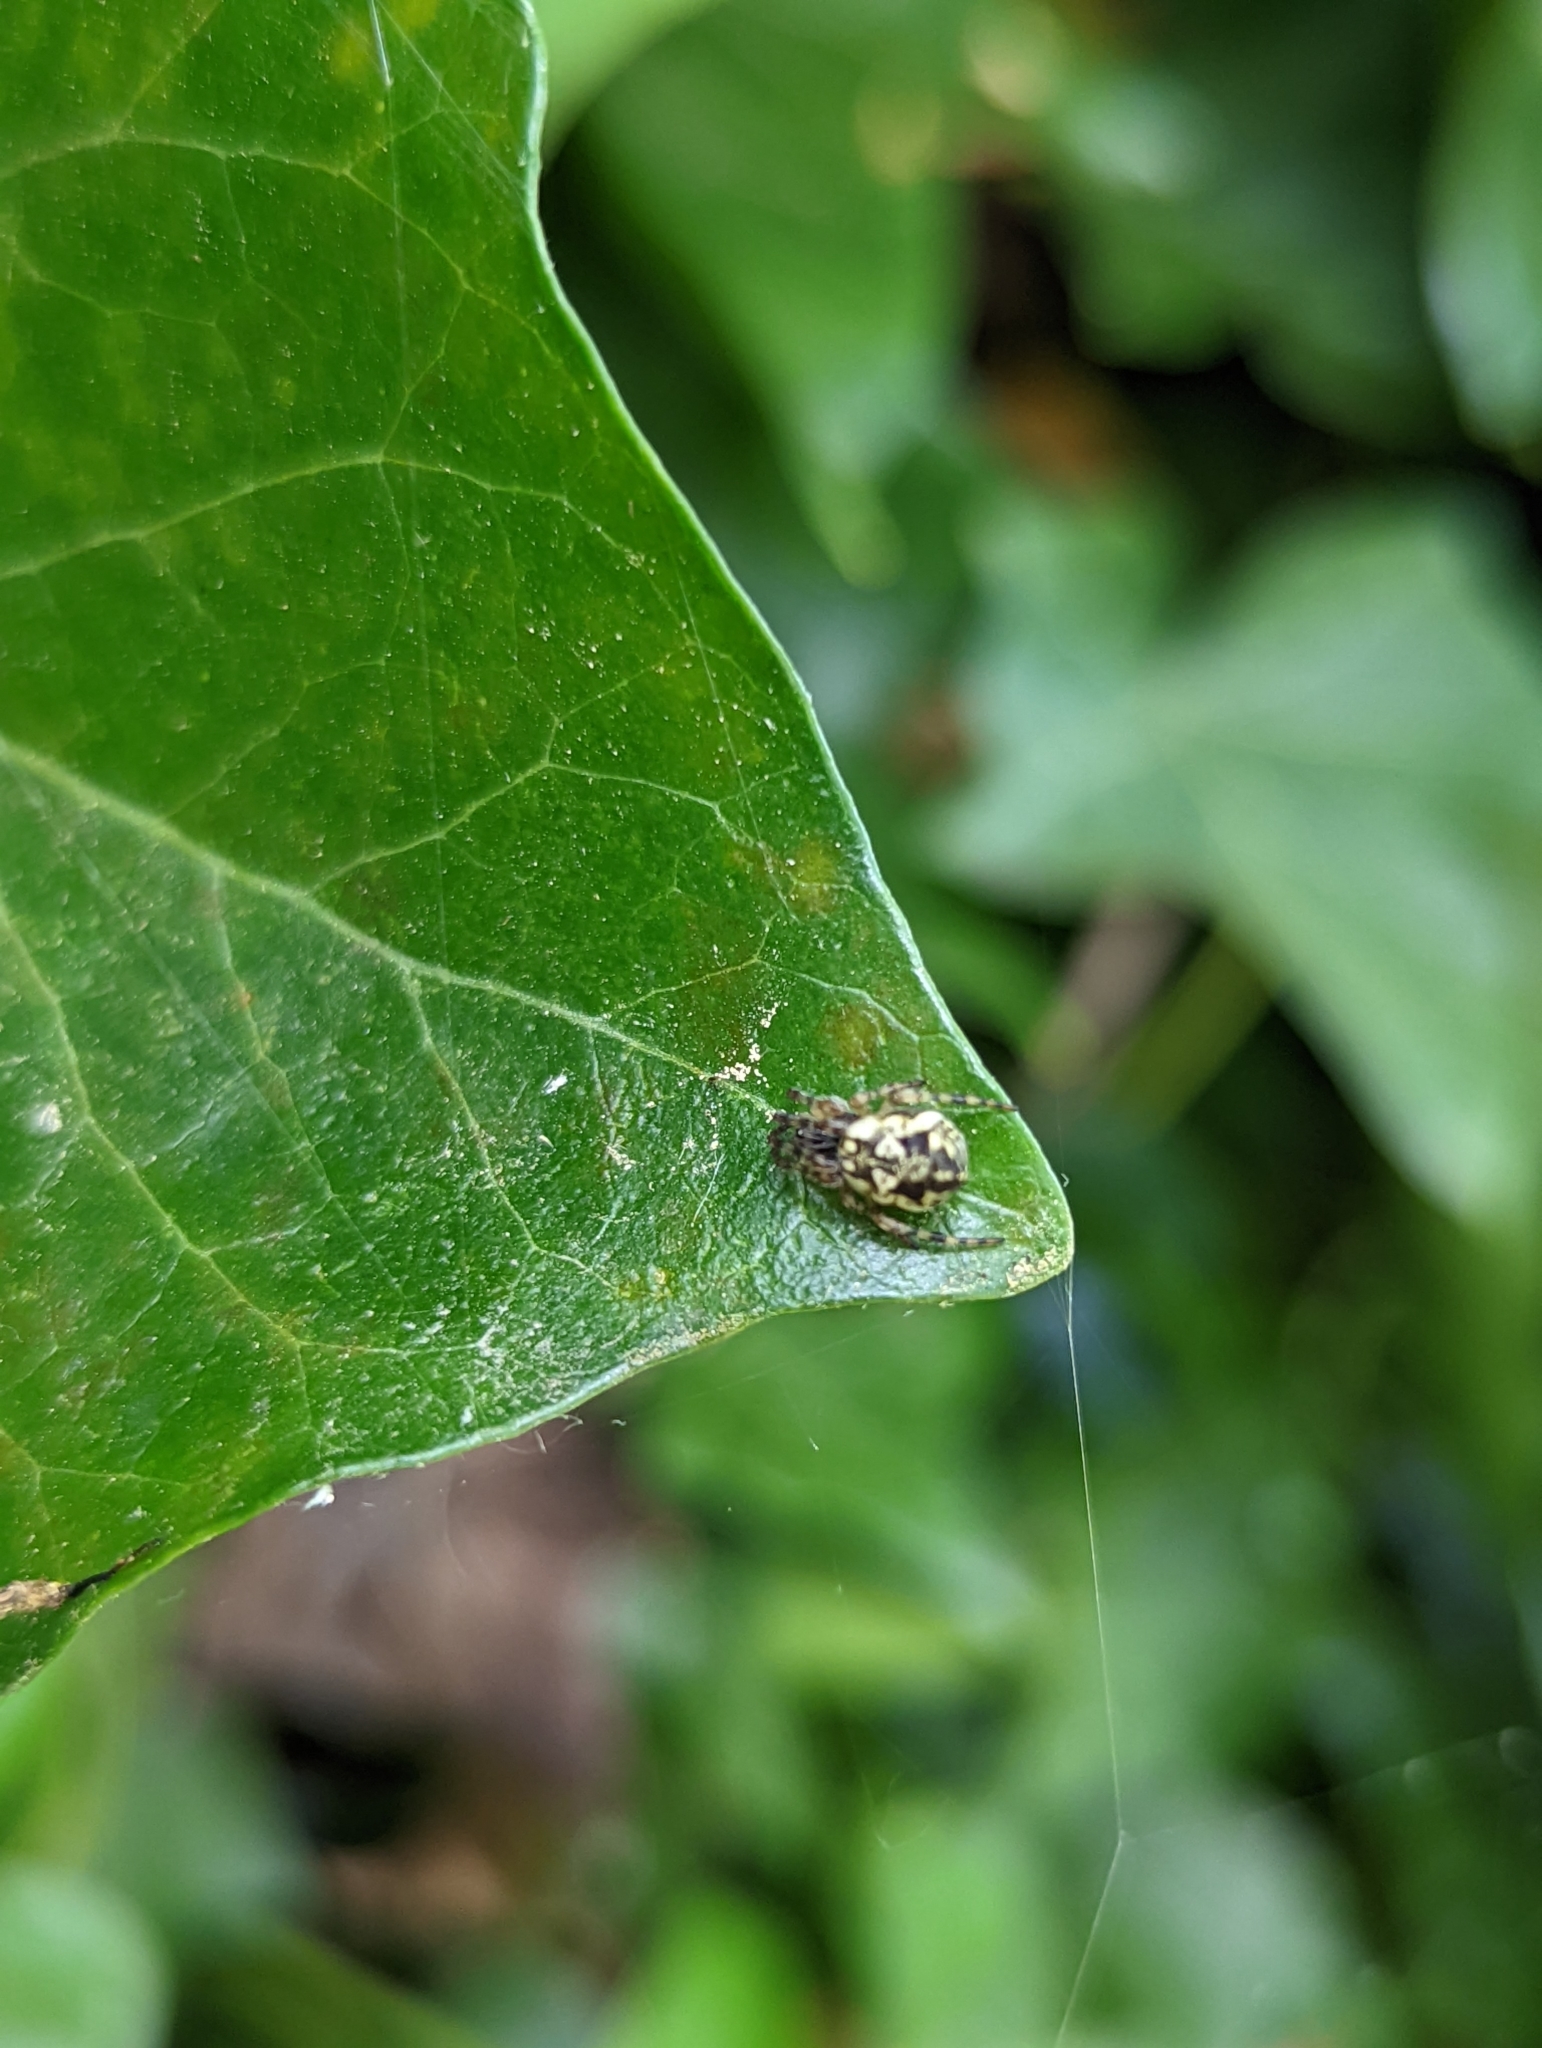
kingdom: Animalia
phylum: Arthropoda
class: Arachnida
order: Araneae
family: Araneidae
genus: Cyclosa
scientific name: Cyclosa conica
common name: Conical trashline orbweaver
